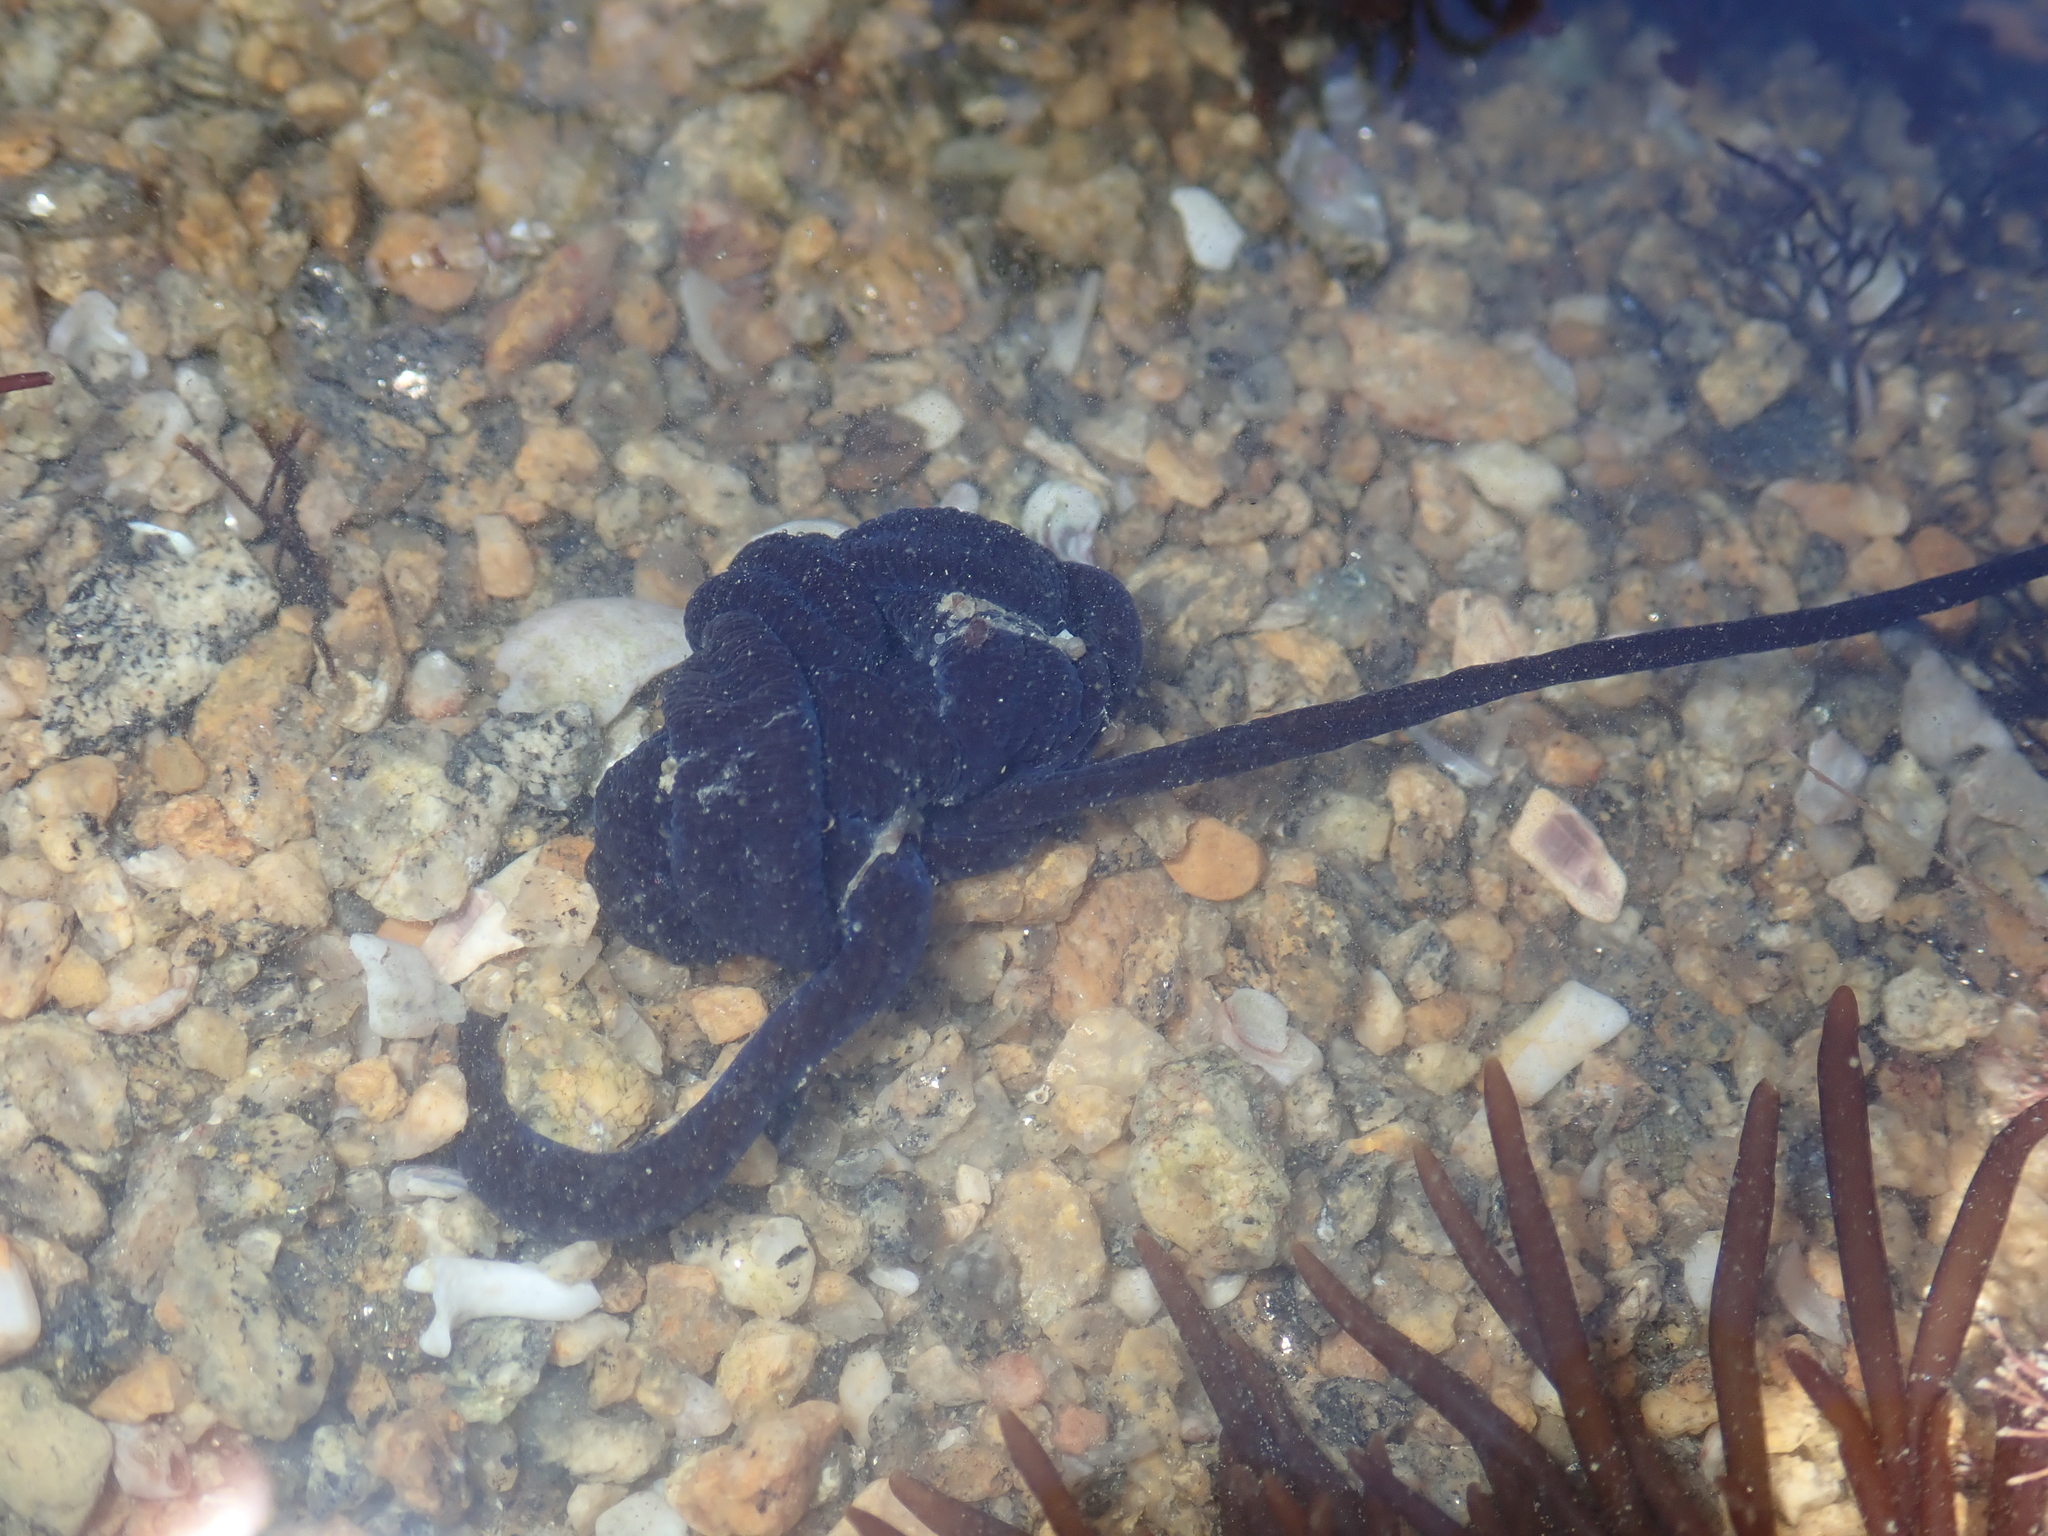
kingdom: Animalia
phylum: Nemertea
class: Pilidiophora
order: Heteronemertea
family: Lineidae
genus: Lineus
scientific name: Lineus longissimus
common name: Bootlace worm
